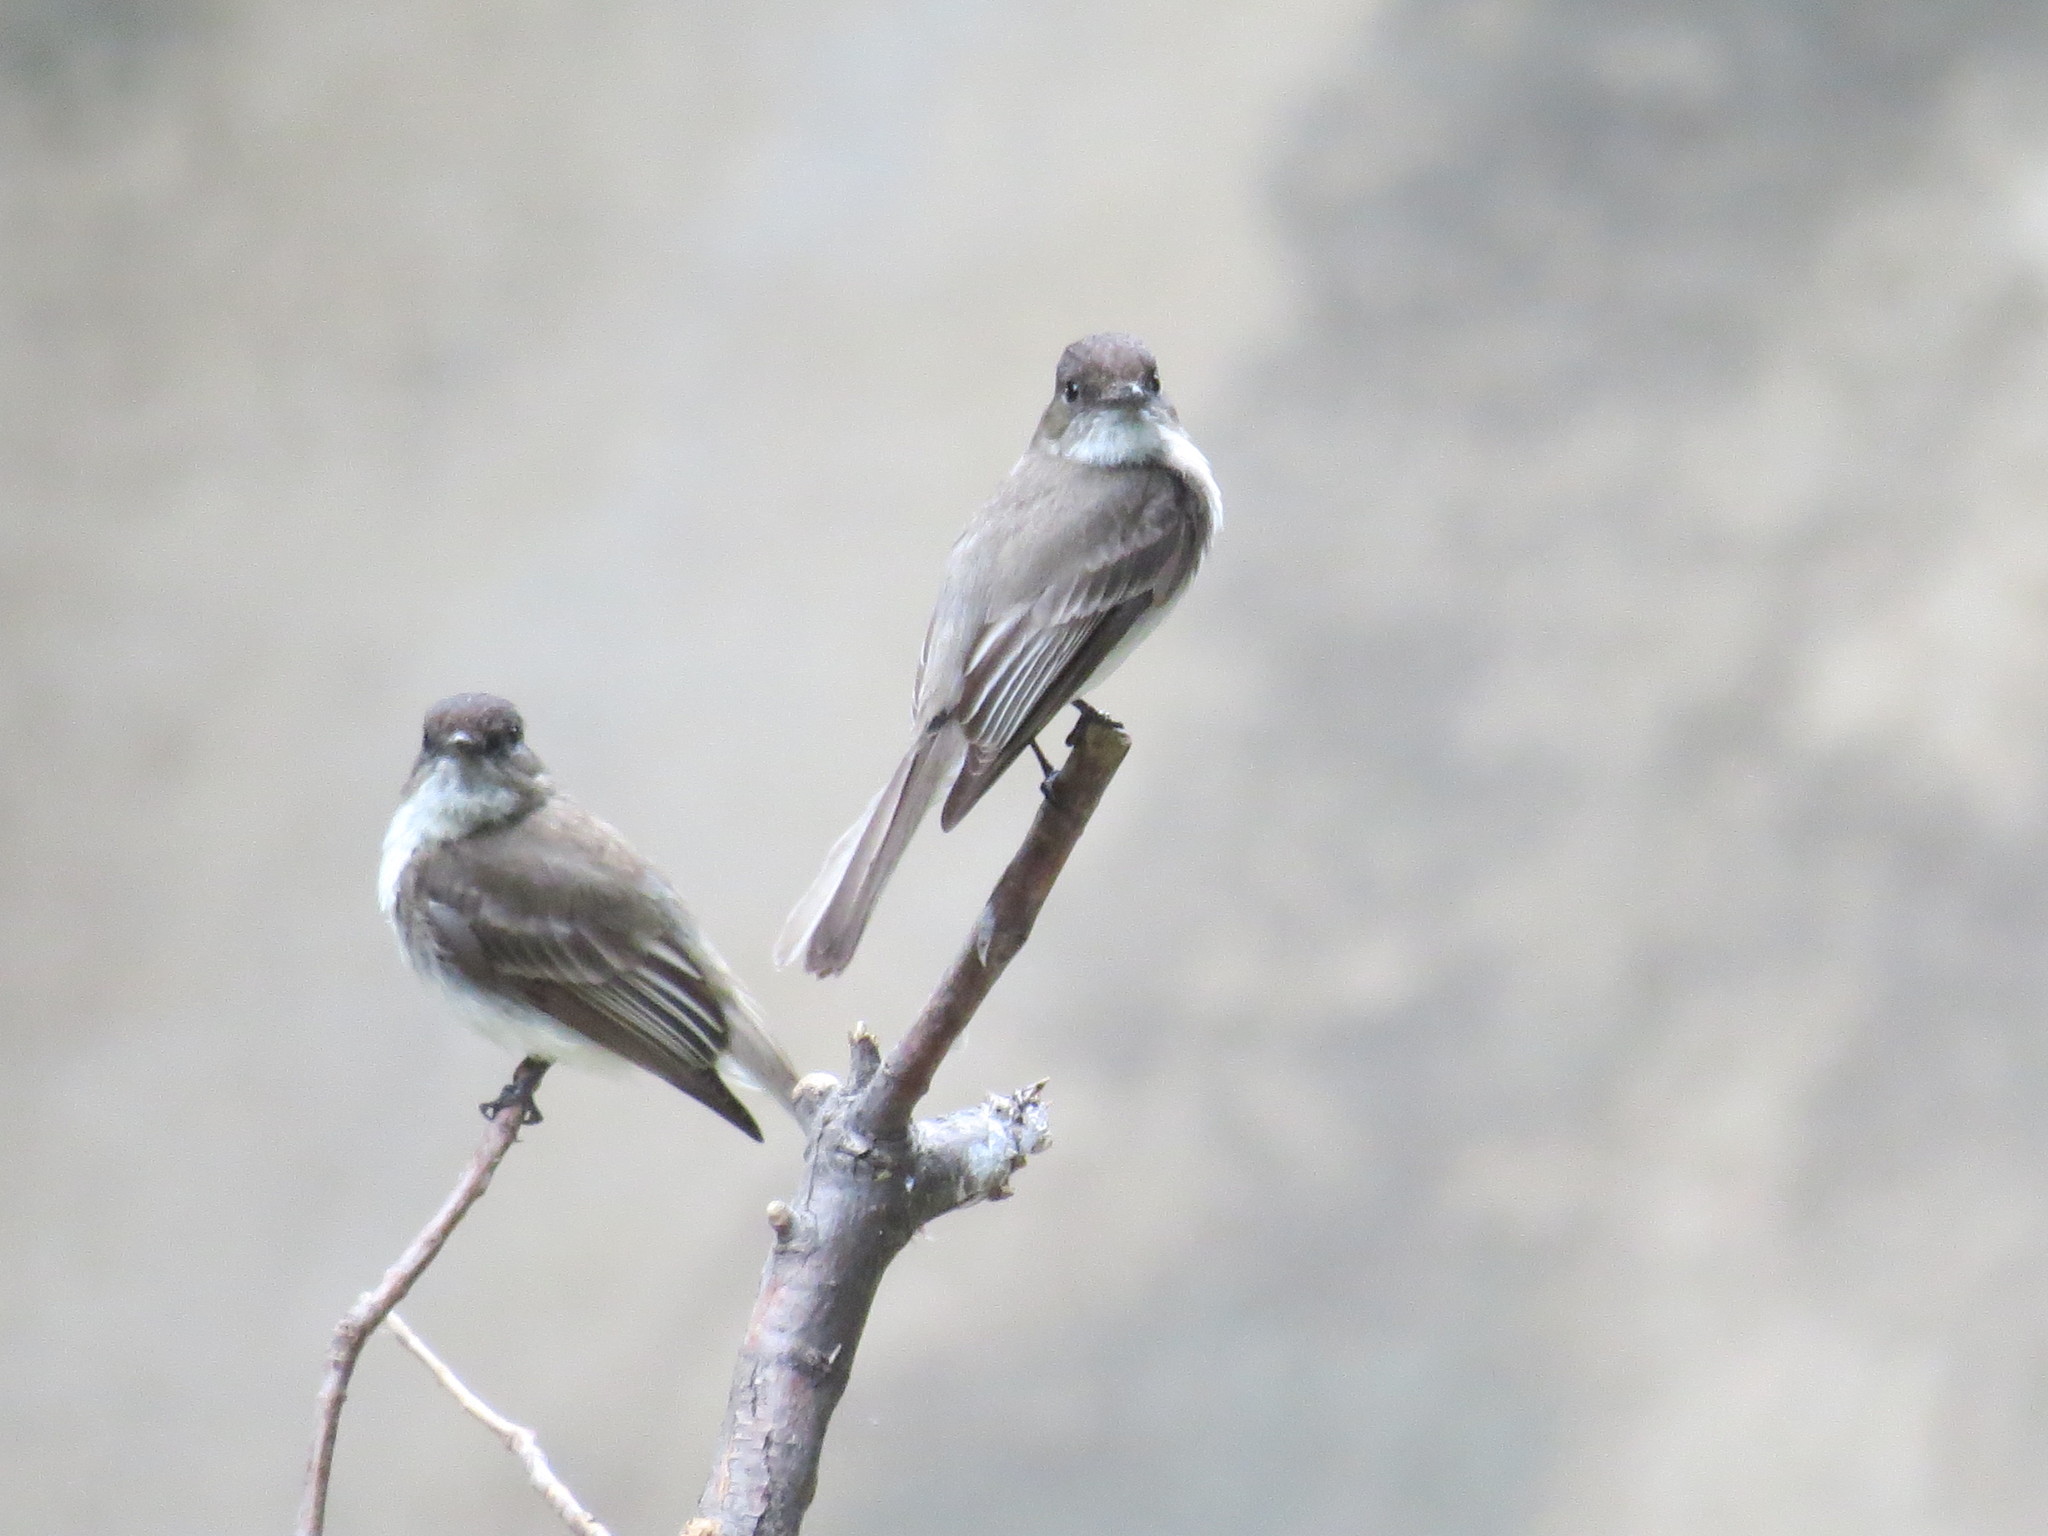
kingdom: Animalia
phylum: Chordata
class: Aves
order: Passeriformes
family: Tyrannidae
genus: Sayornis
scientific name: Sayornis phoebe
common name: Eastern phoebe
